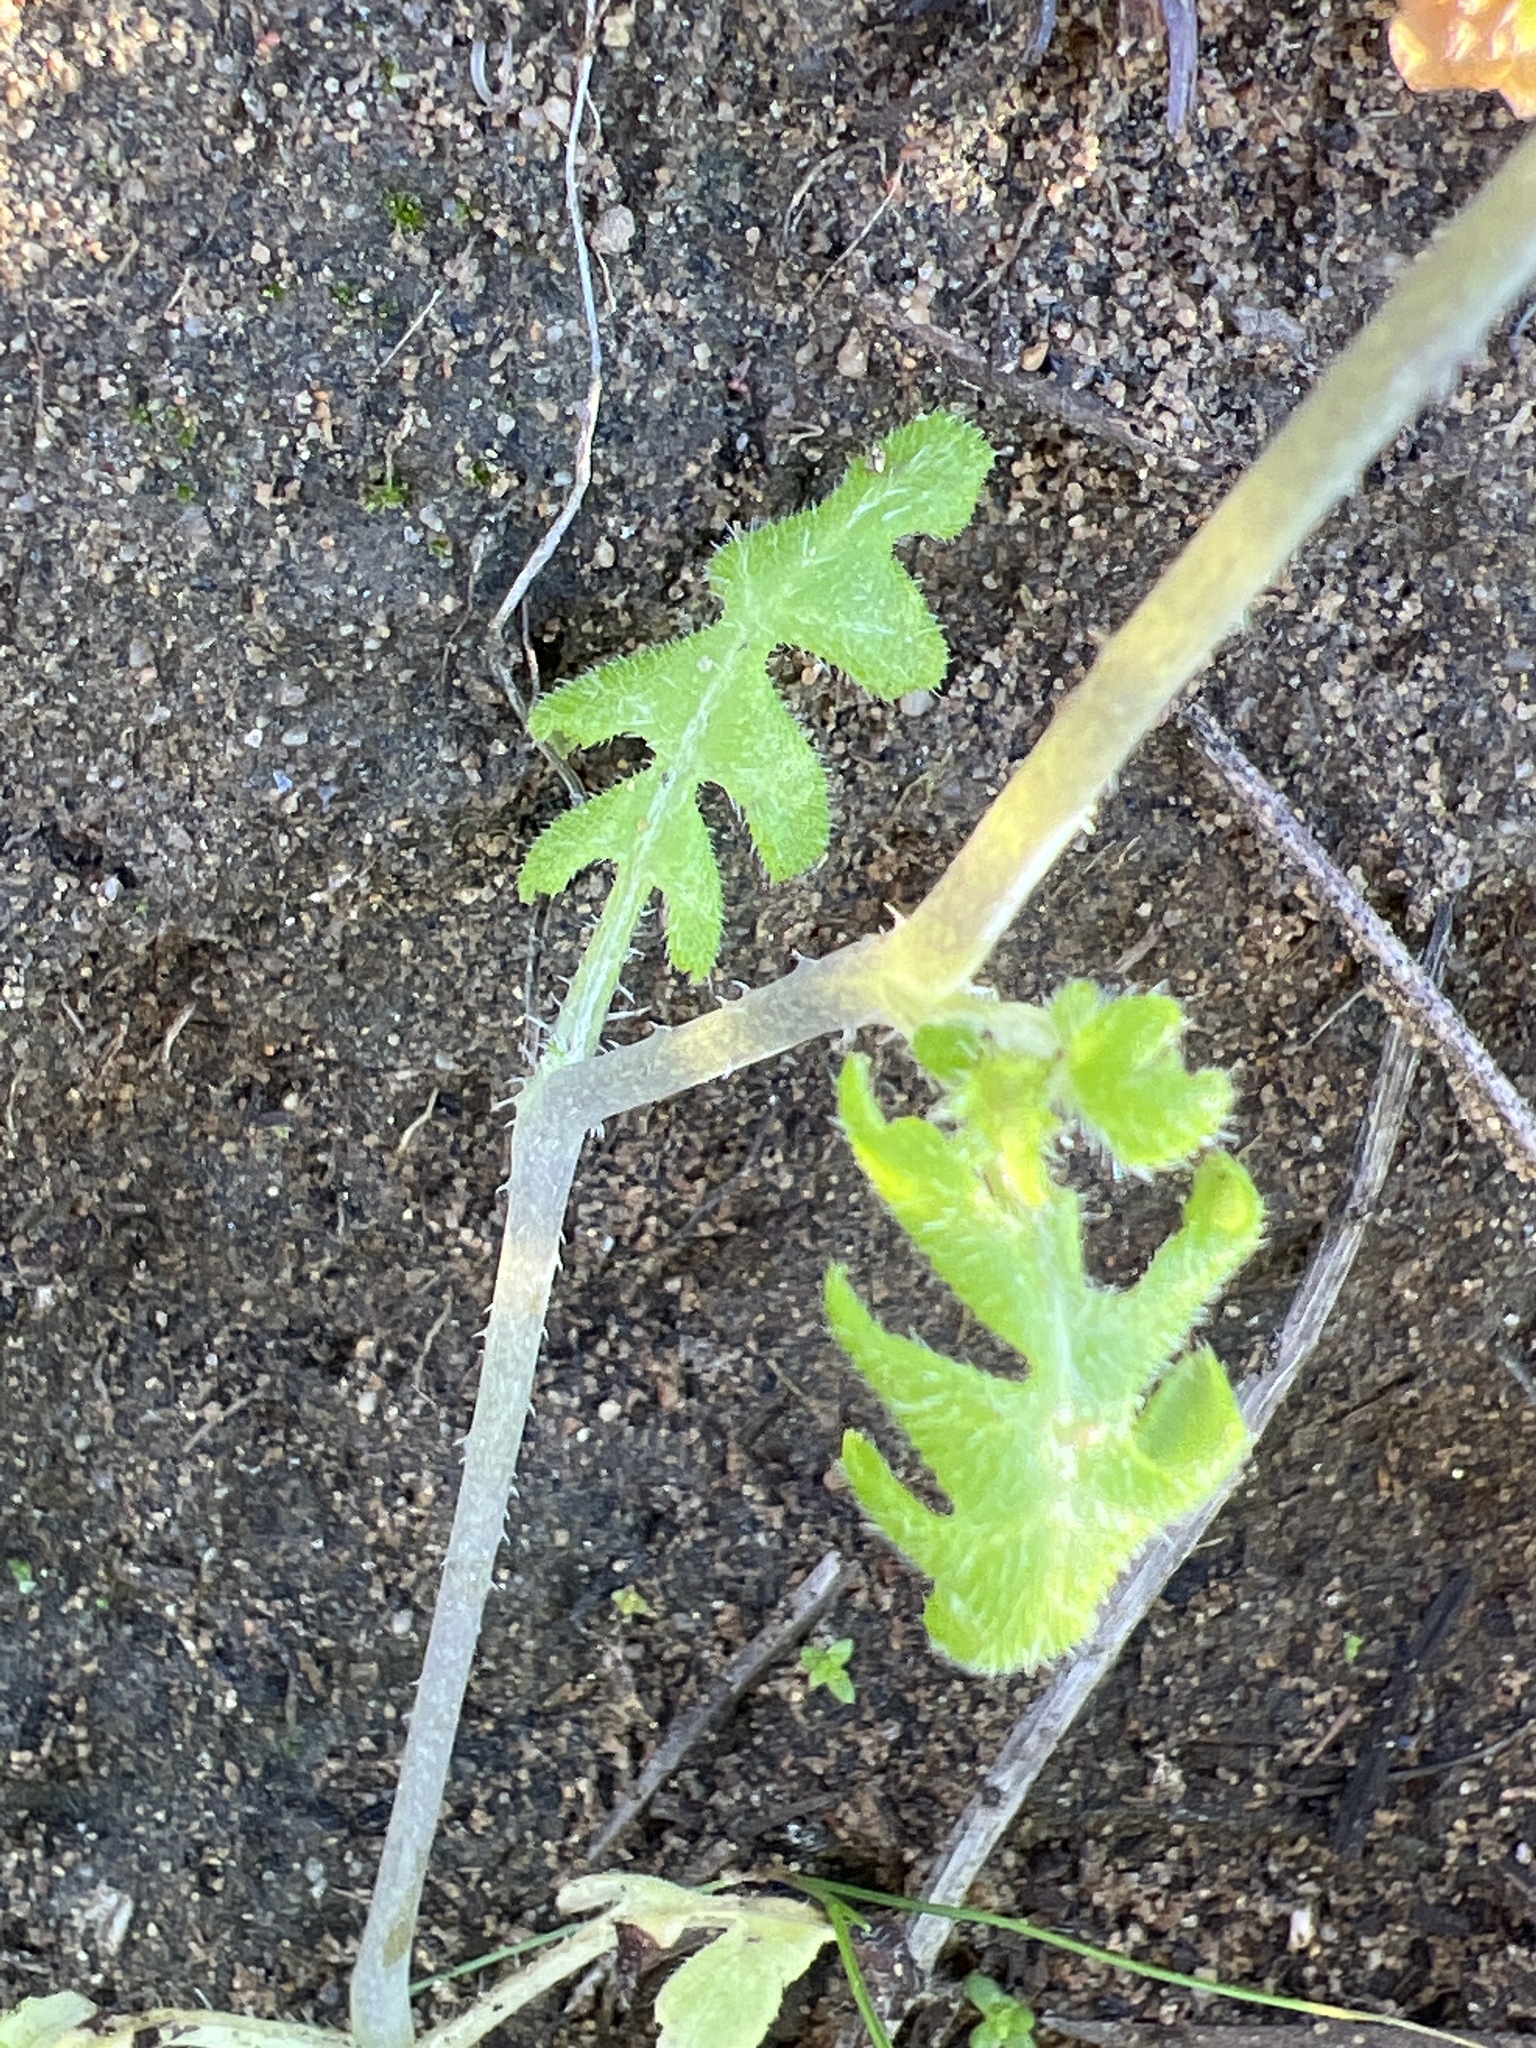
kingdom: Plantae
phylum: Tracheophyta
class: Magnoliopsida
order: Boraginales
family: Hydrophyllaceae
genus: Pholistoma
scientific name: Pholistoma racemosum
